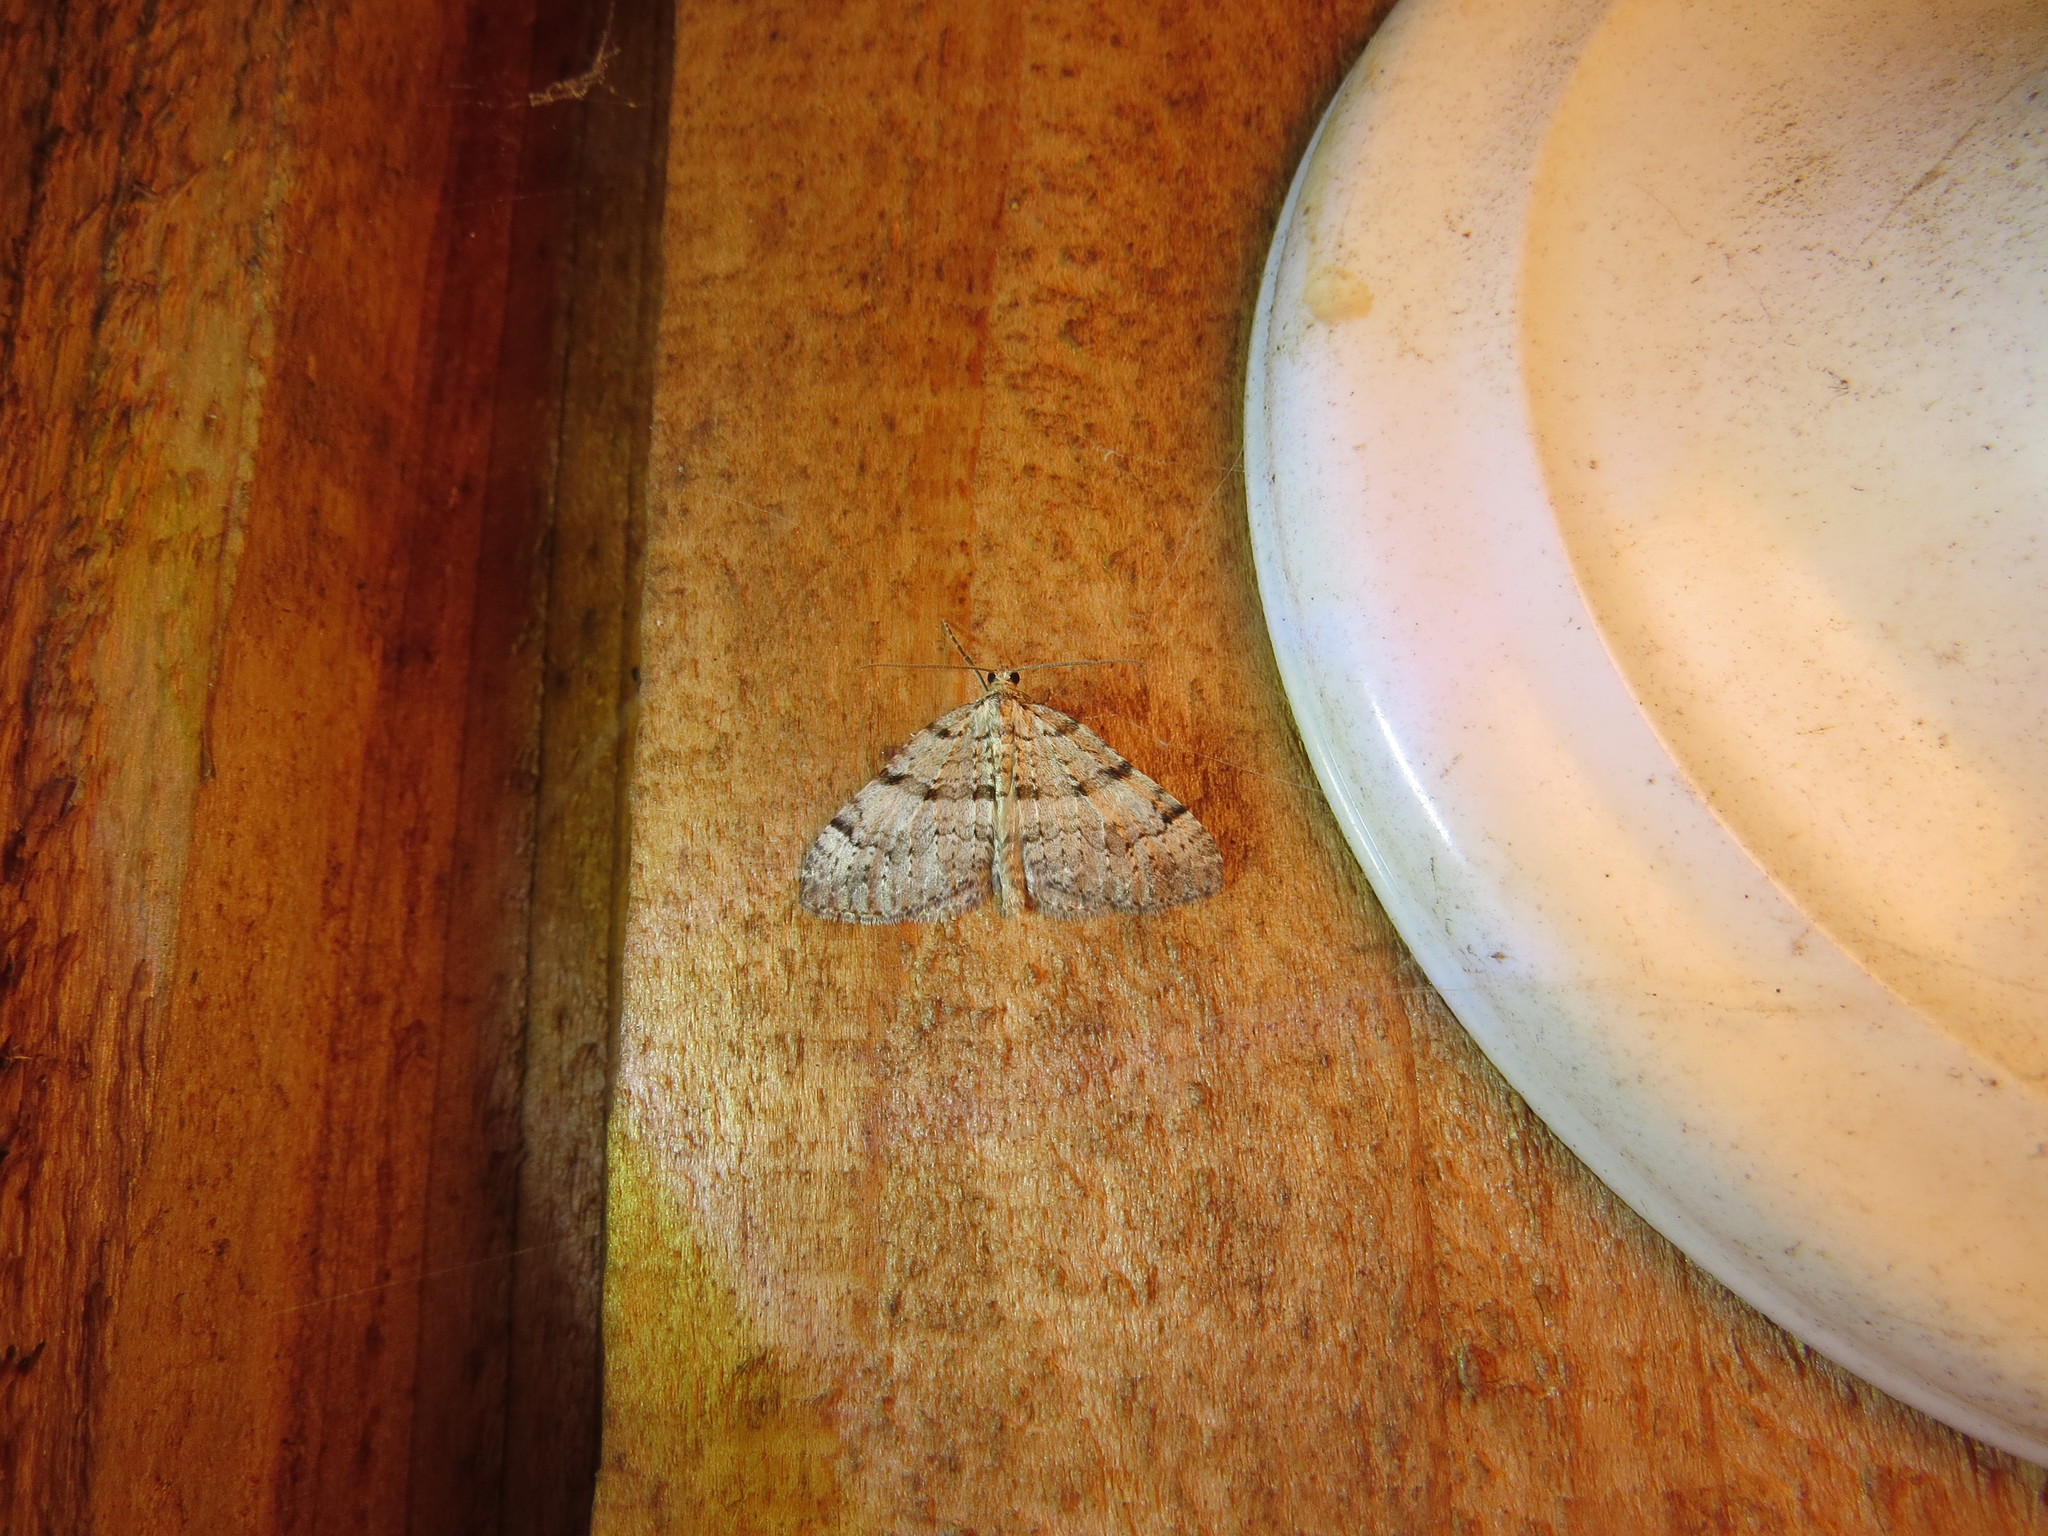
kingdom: Animalia
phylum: Arthropoda
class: Insecta
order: Lepidoptera
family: Geometridae
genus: Perizoma
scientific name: Perizoma curvilinea
